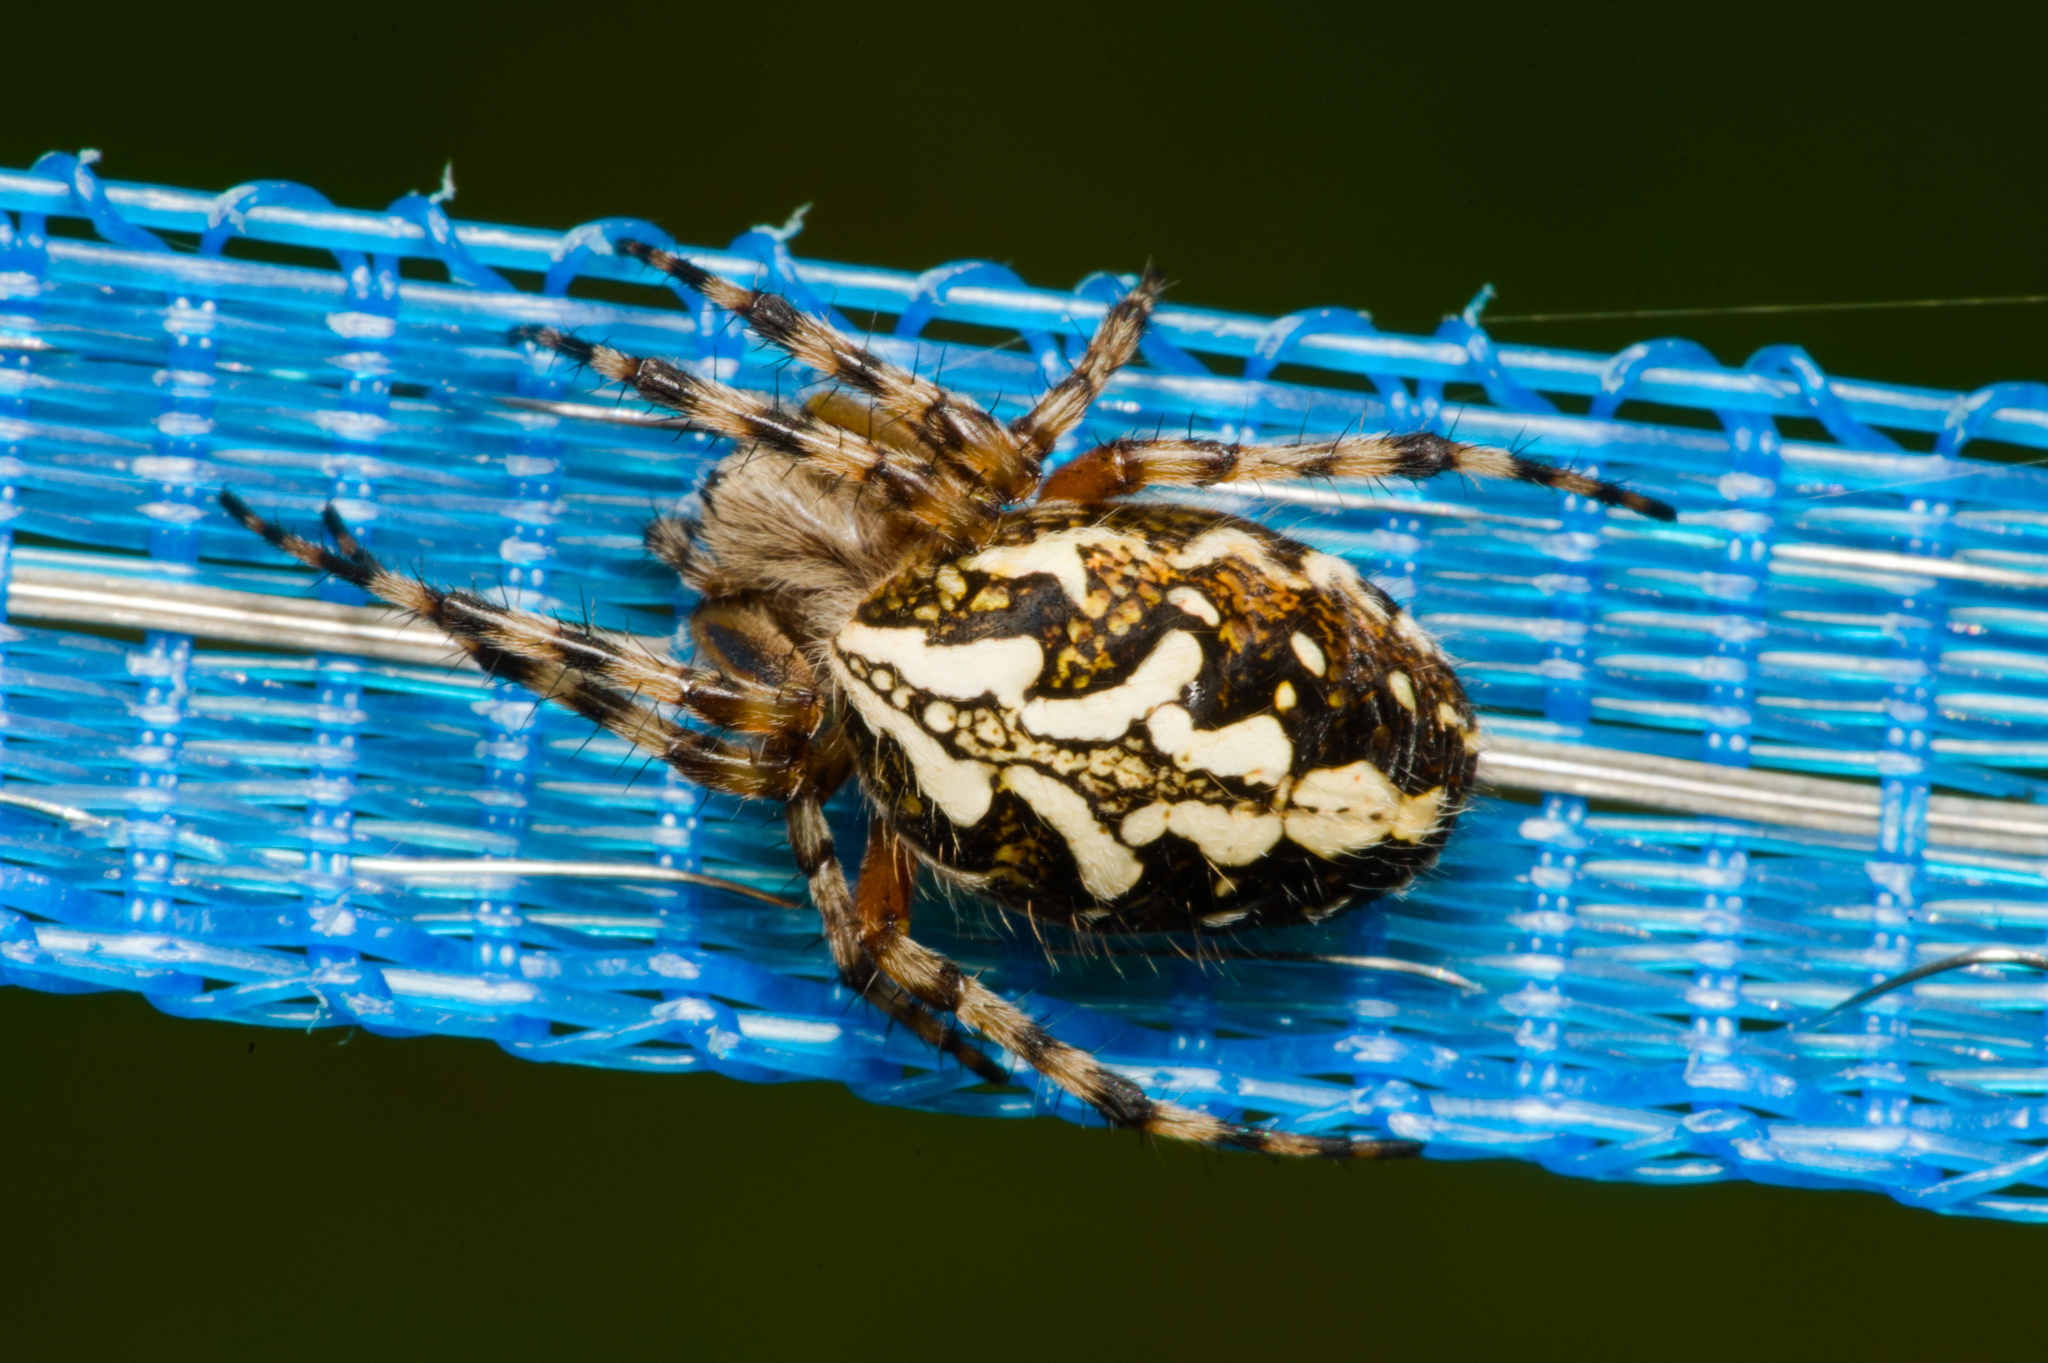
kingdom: Animalia
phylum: Arthropoda
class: Arachnida
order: Araneae
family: Araneidae
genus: Aculepeira
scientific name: Aculepeira ceropegia
